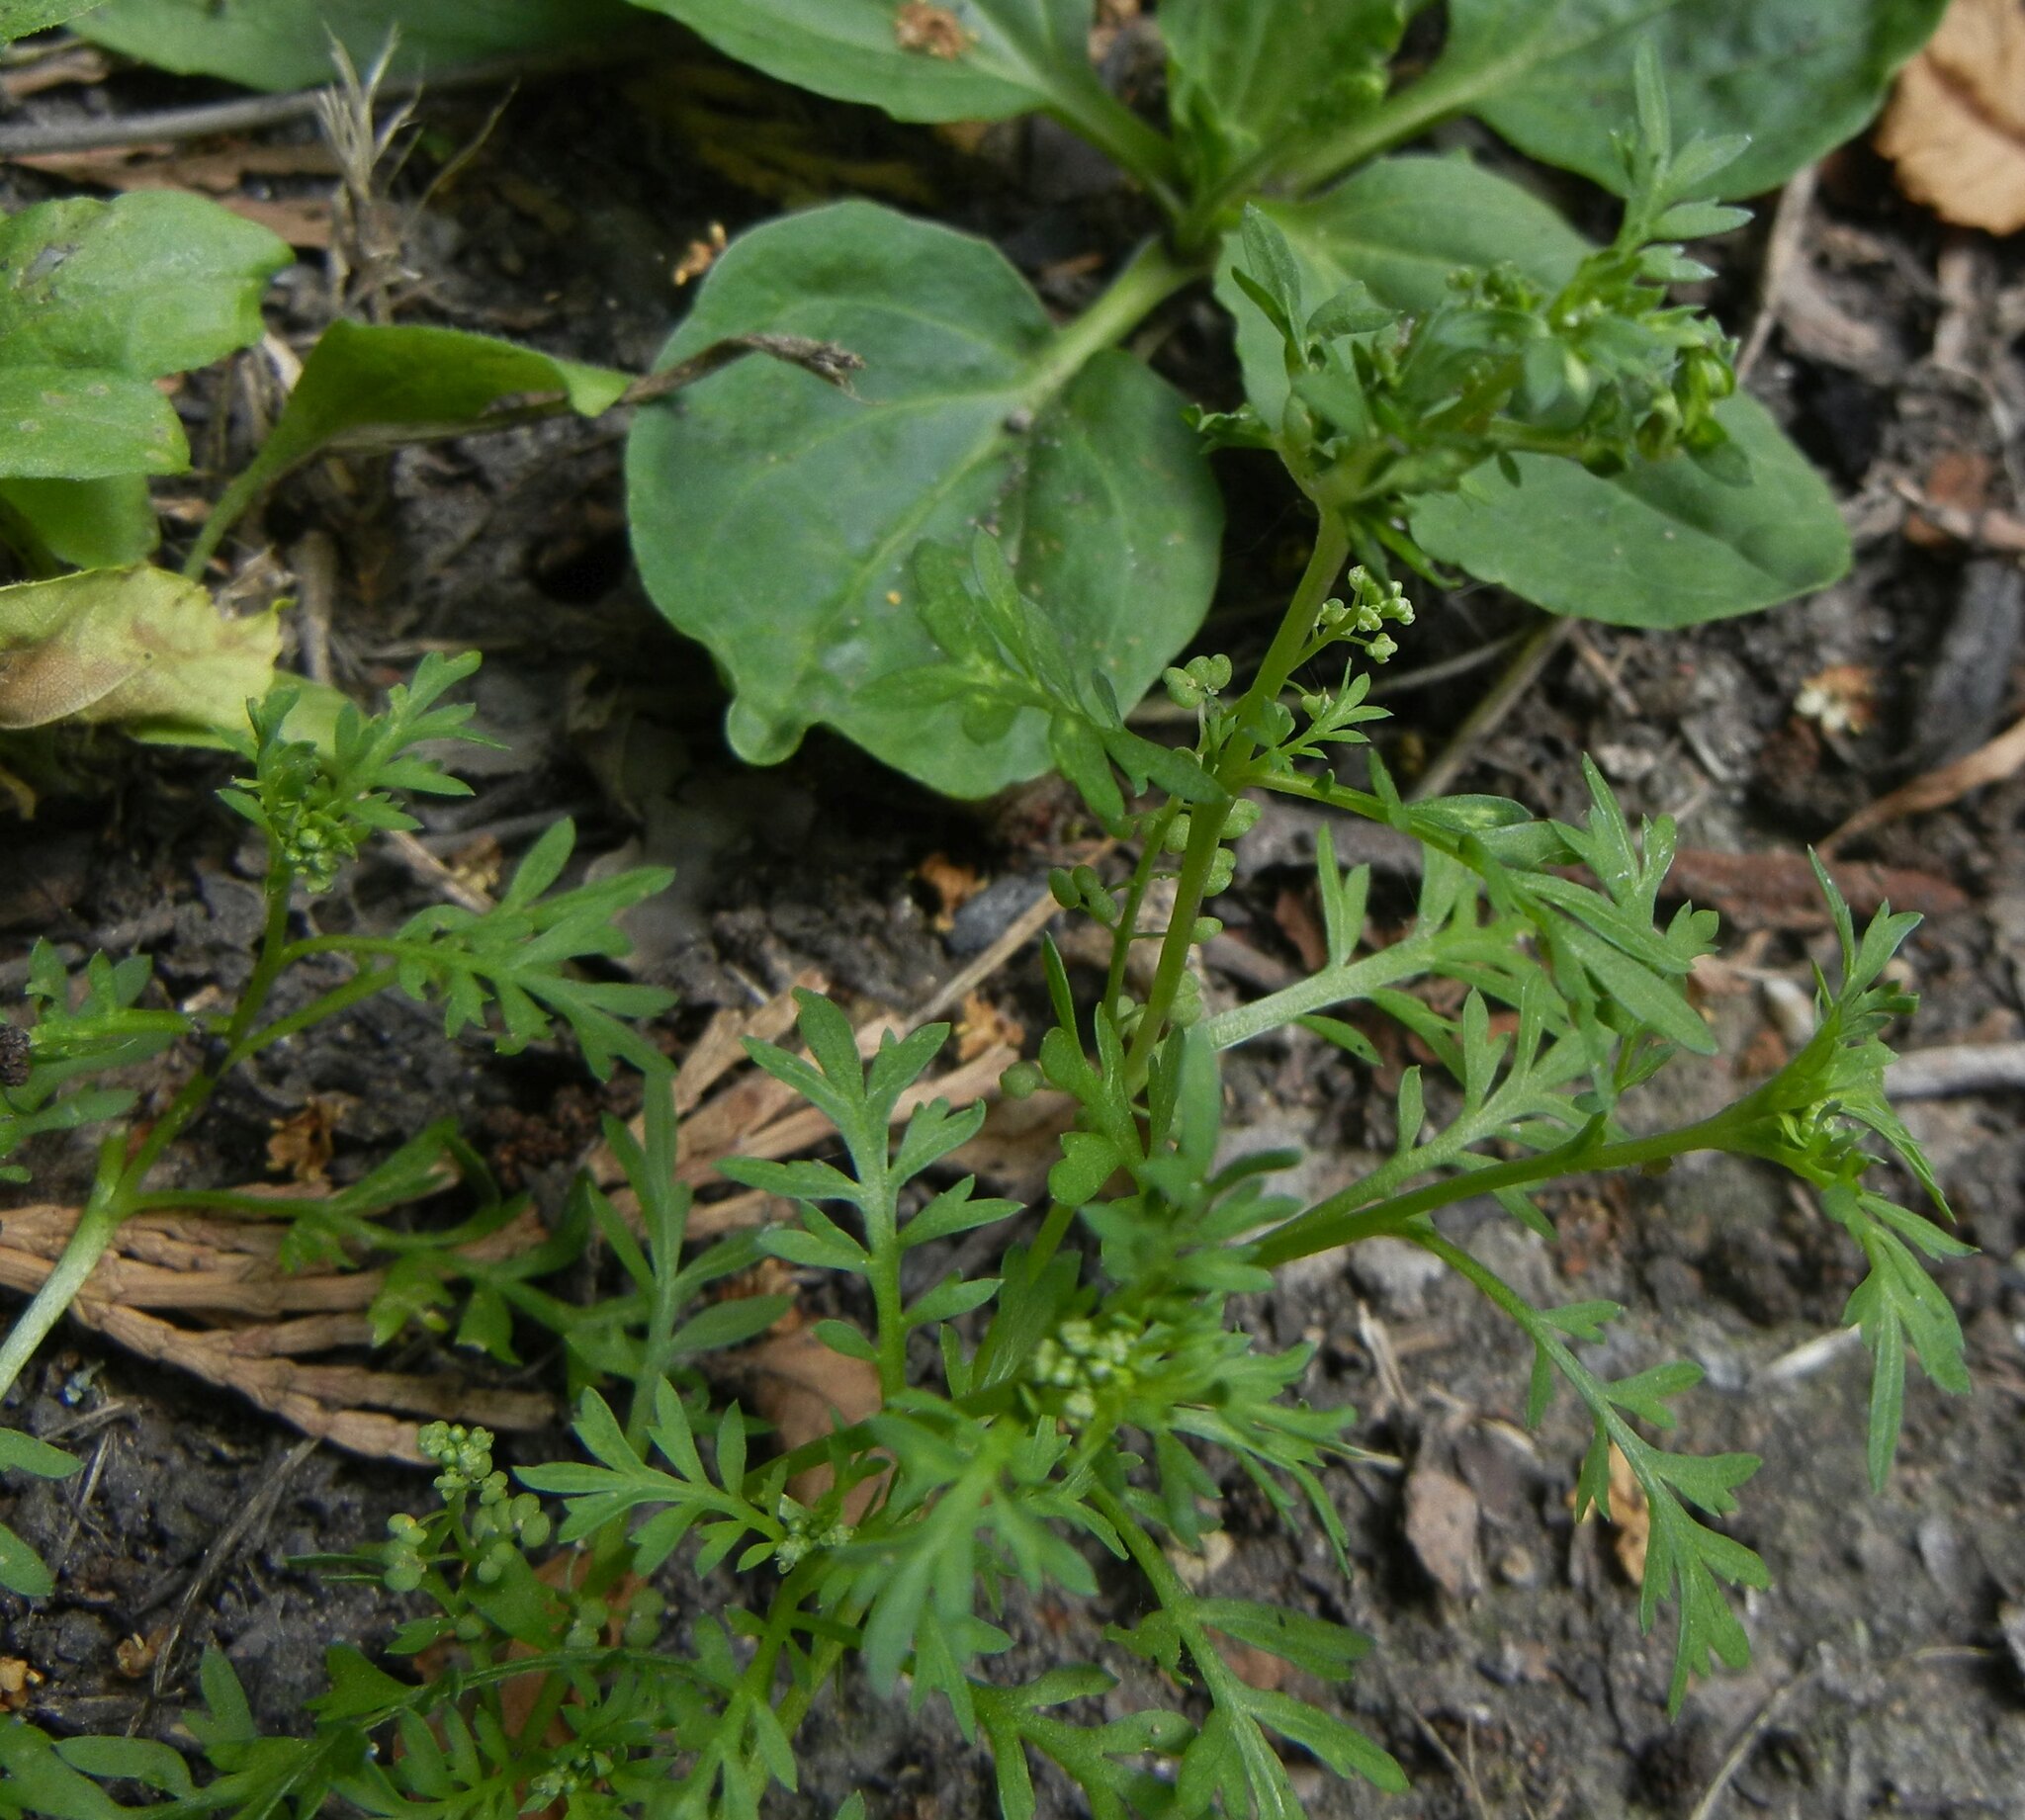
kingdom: Plantae
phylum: Tracheophyta
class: Magnoliopsida
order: Brassicales
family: Brassicaceae
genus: Lepidium
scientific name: Lepidium didymum
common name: Lesser swinecress
